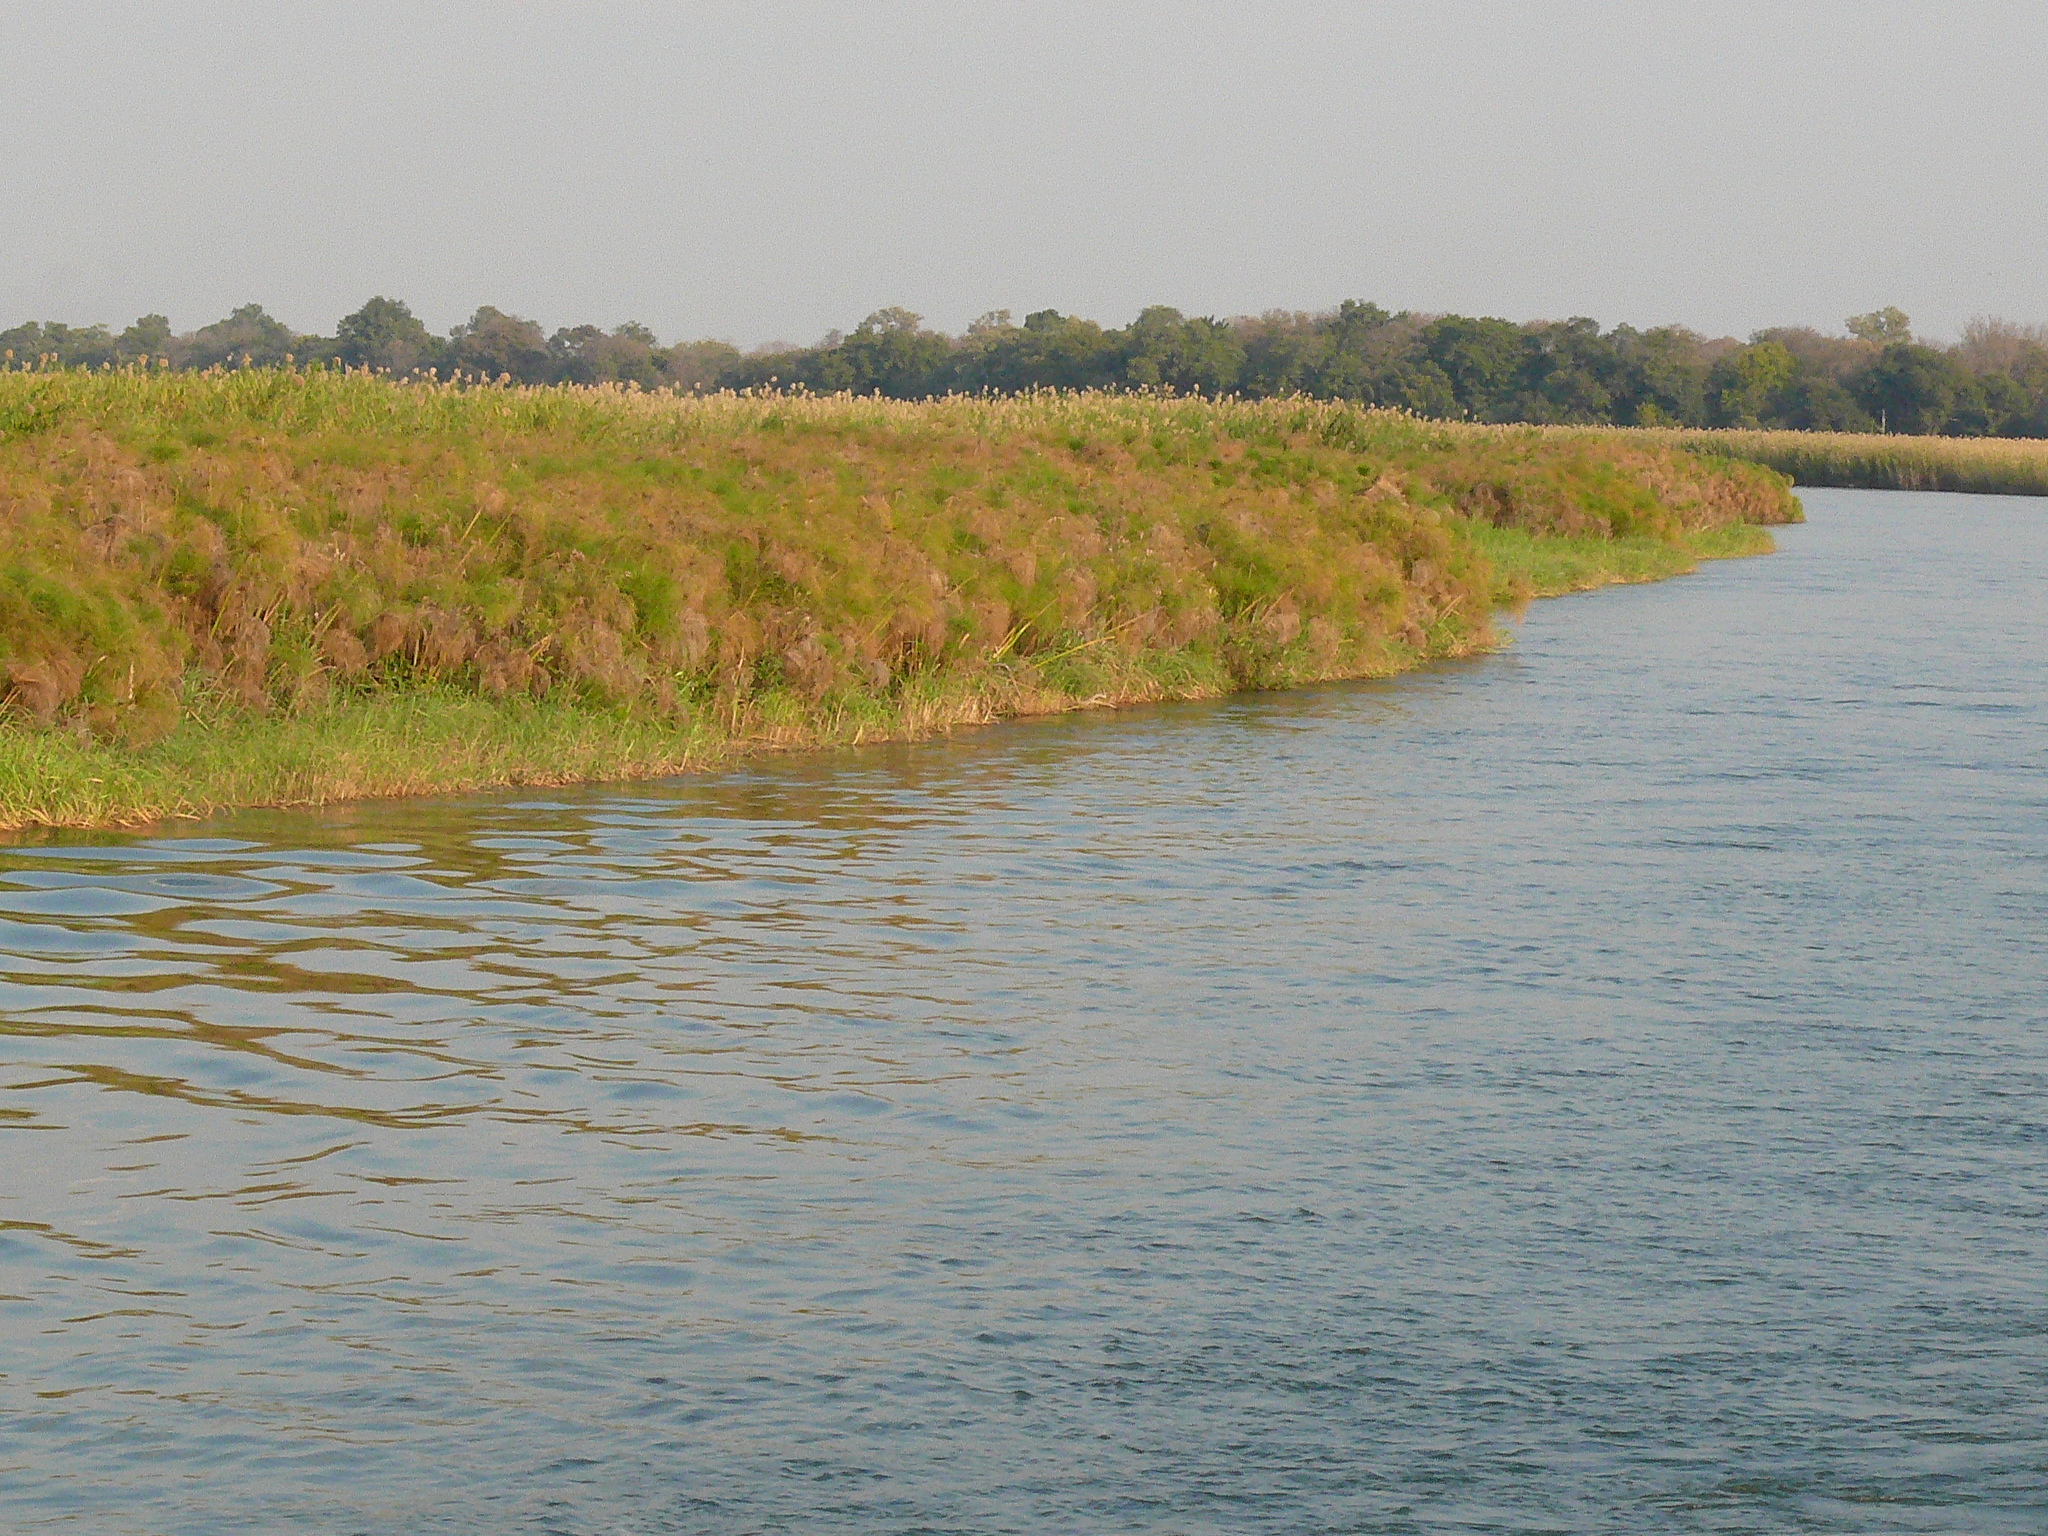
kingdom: Plantae
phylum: Tracheophyta
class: Liliopsida
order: Poales
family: Cyperaceae
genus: Cyperus
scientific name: Cyperus papyrus
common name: Papyrus
